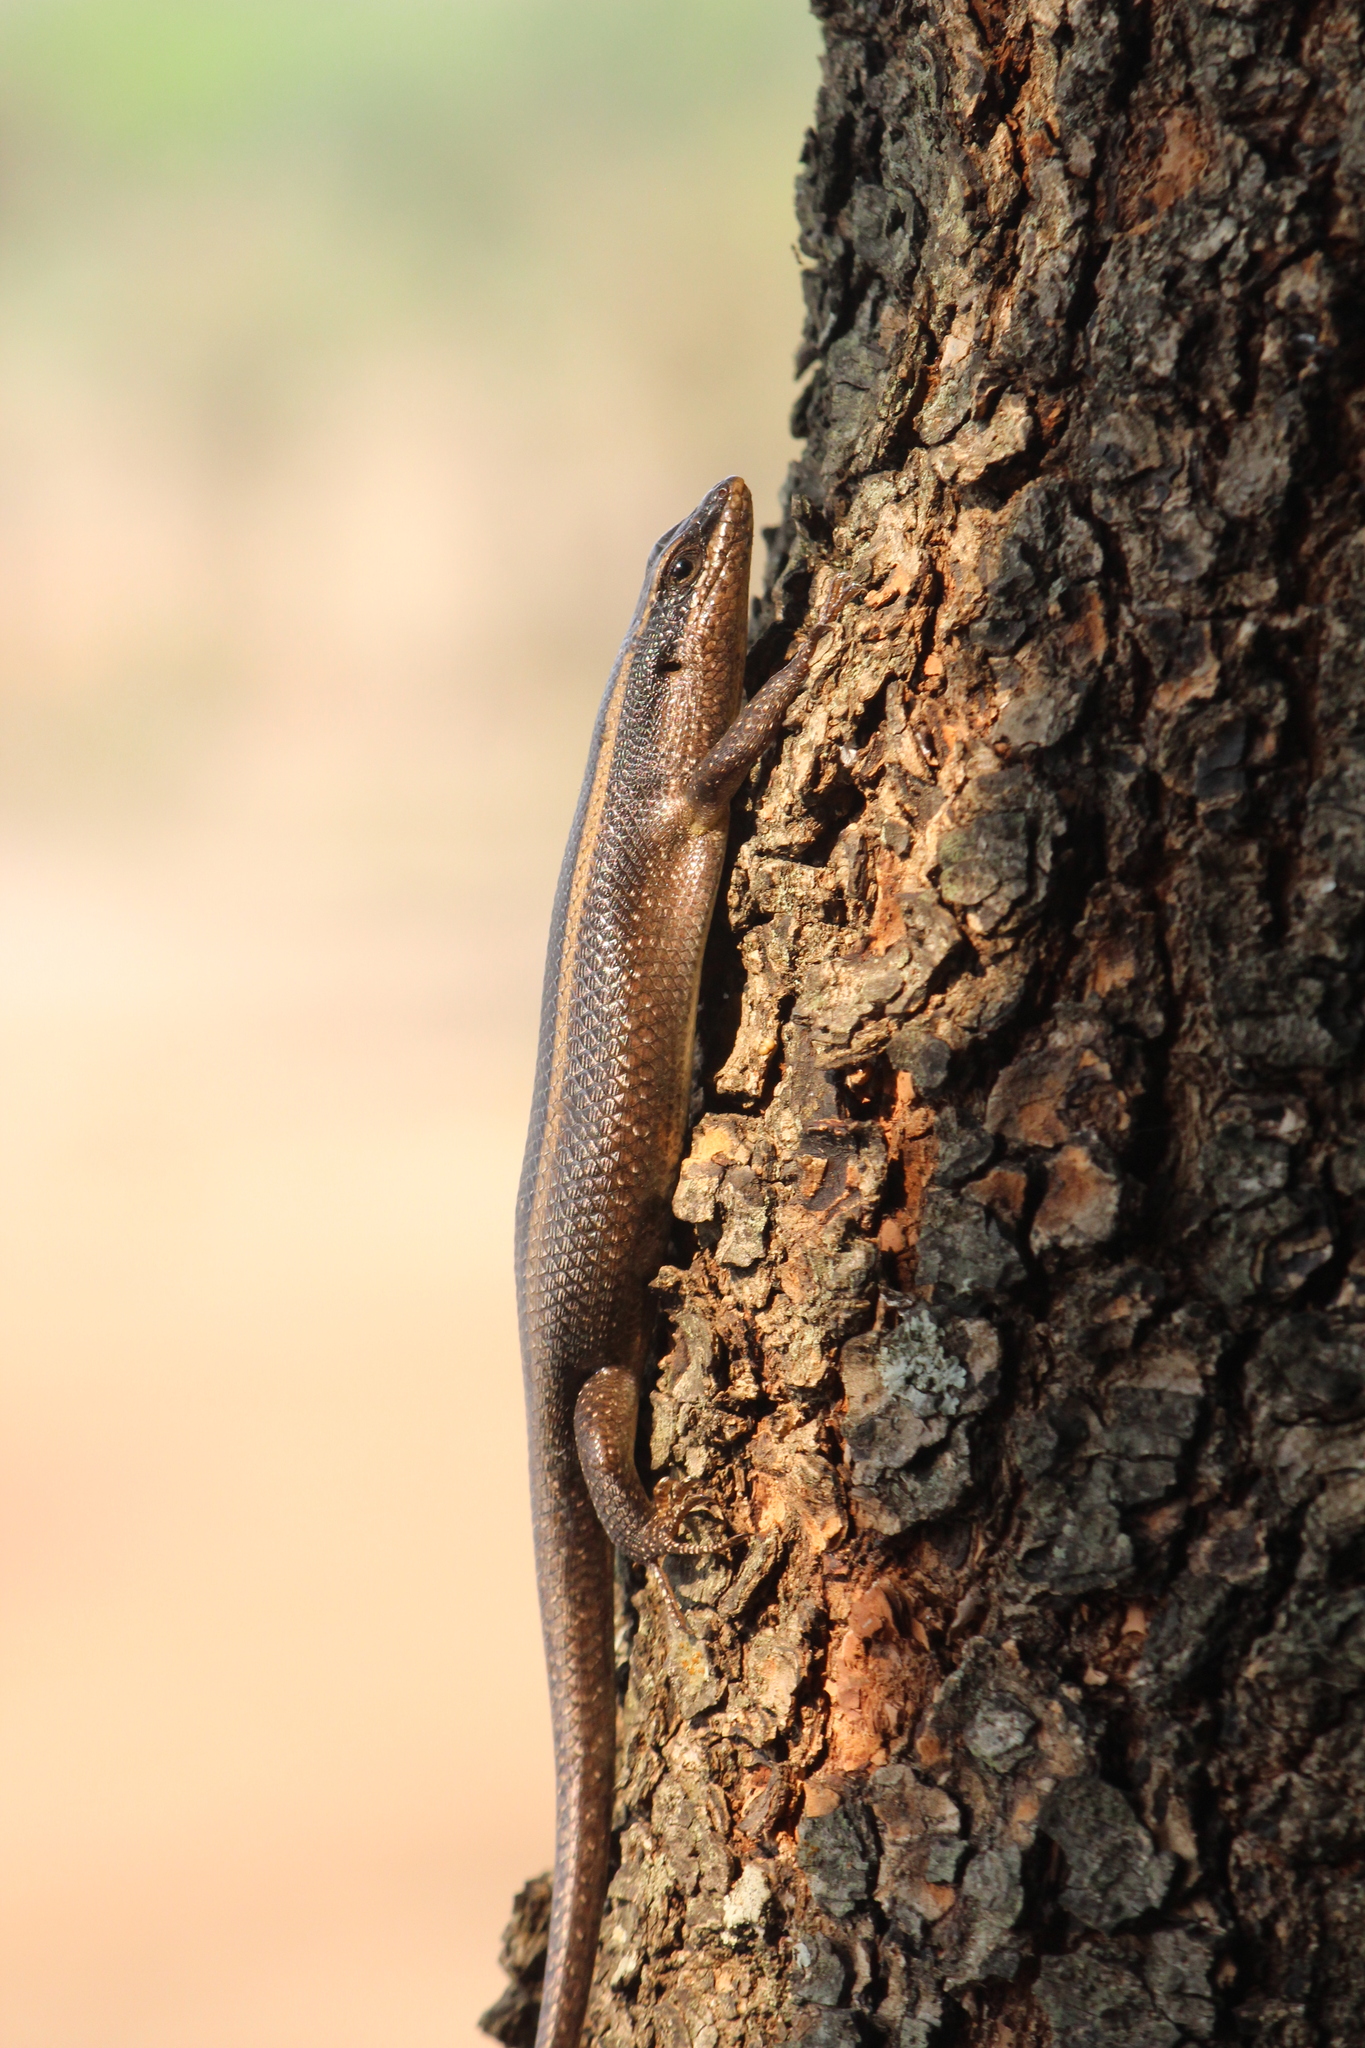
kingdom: Animalia
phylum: Chordata
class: Squamata
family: Scincidae
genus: Trachylepis
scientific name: Trachylepis striata
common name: African striped mabuya
